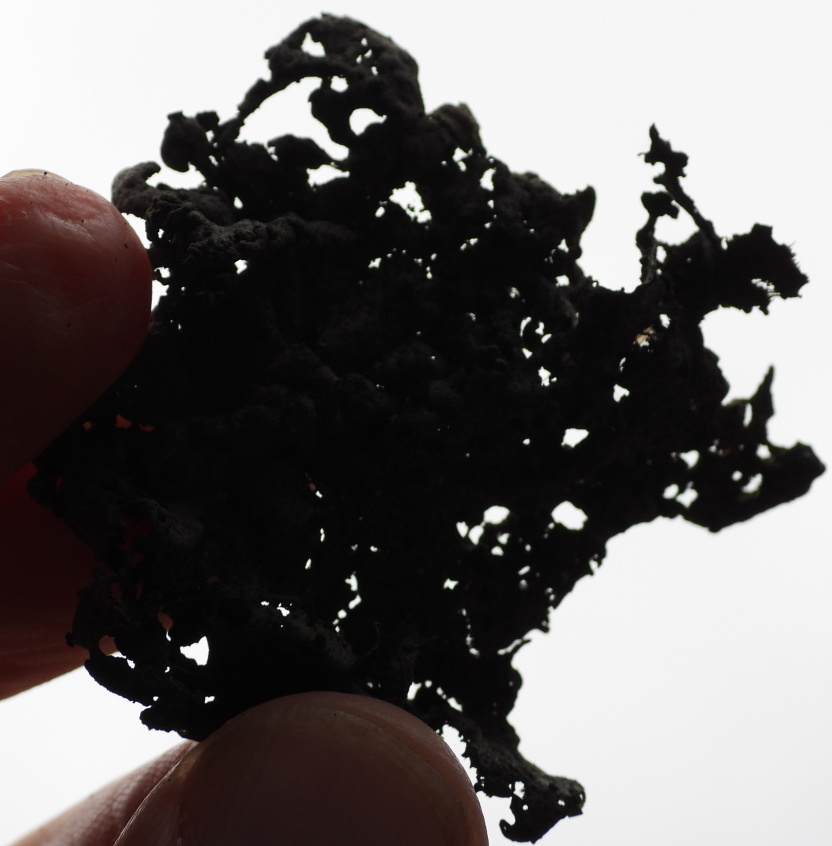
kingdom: Fungi
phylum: Ascomycota
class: Lecanoromycetes
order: Umbilicariales
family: Umbilicariaceae
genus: Umbilicaria
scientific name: Umbilicaria torrefacta
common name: Punctured rock tripe lichen
